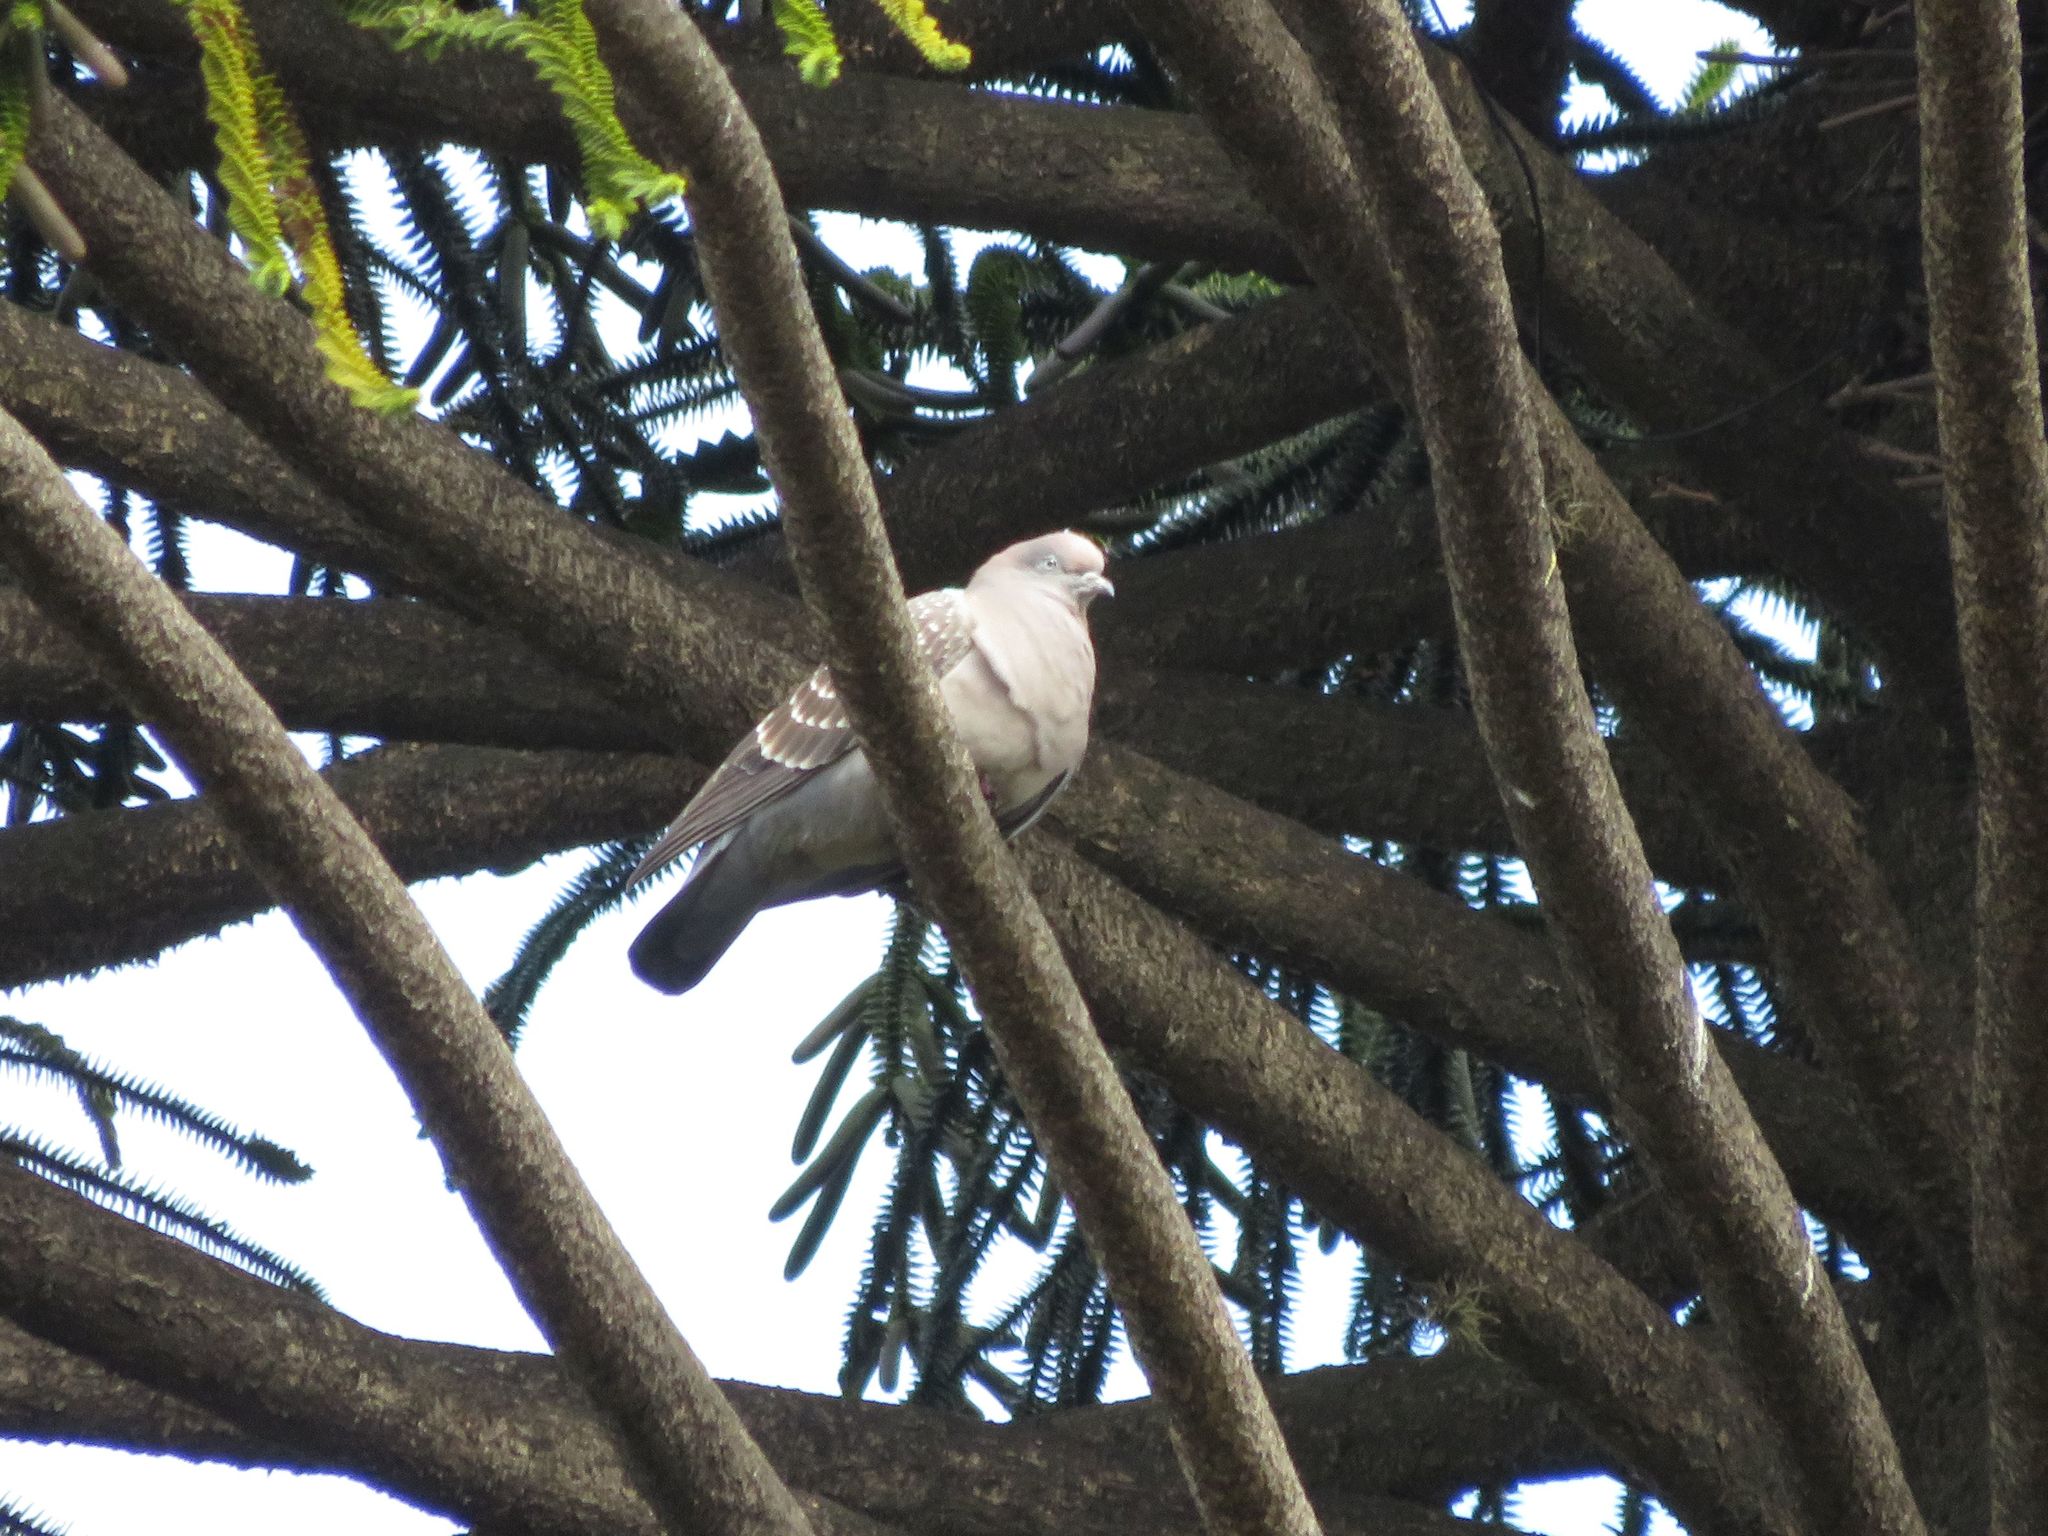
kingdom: Animalia
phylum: Chordata
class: Aves
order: Columbiformes
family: Columbidae
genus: Patagioenas
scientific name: Patagioenas maculosa
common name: Spot-winged pigeon
